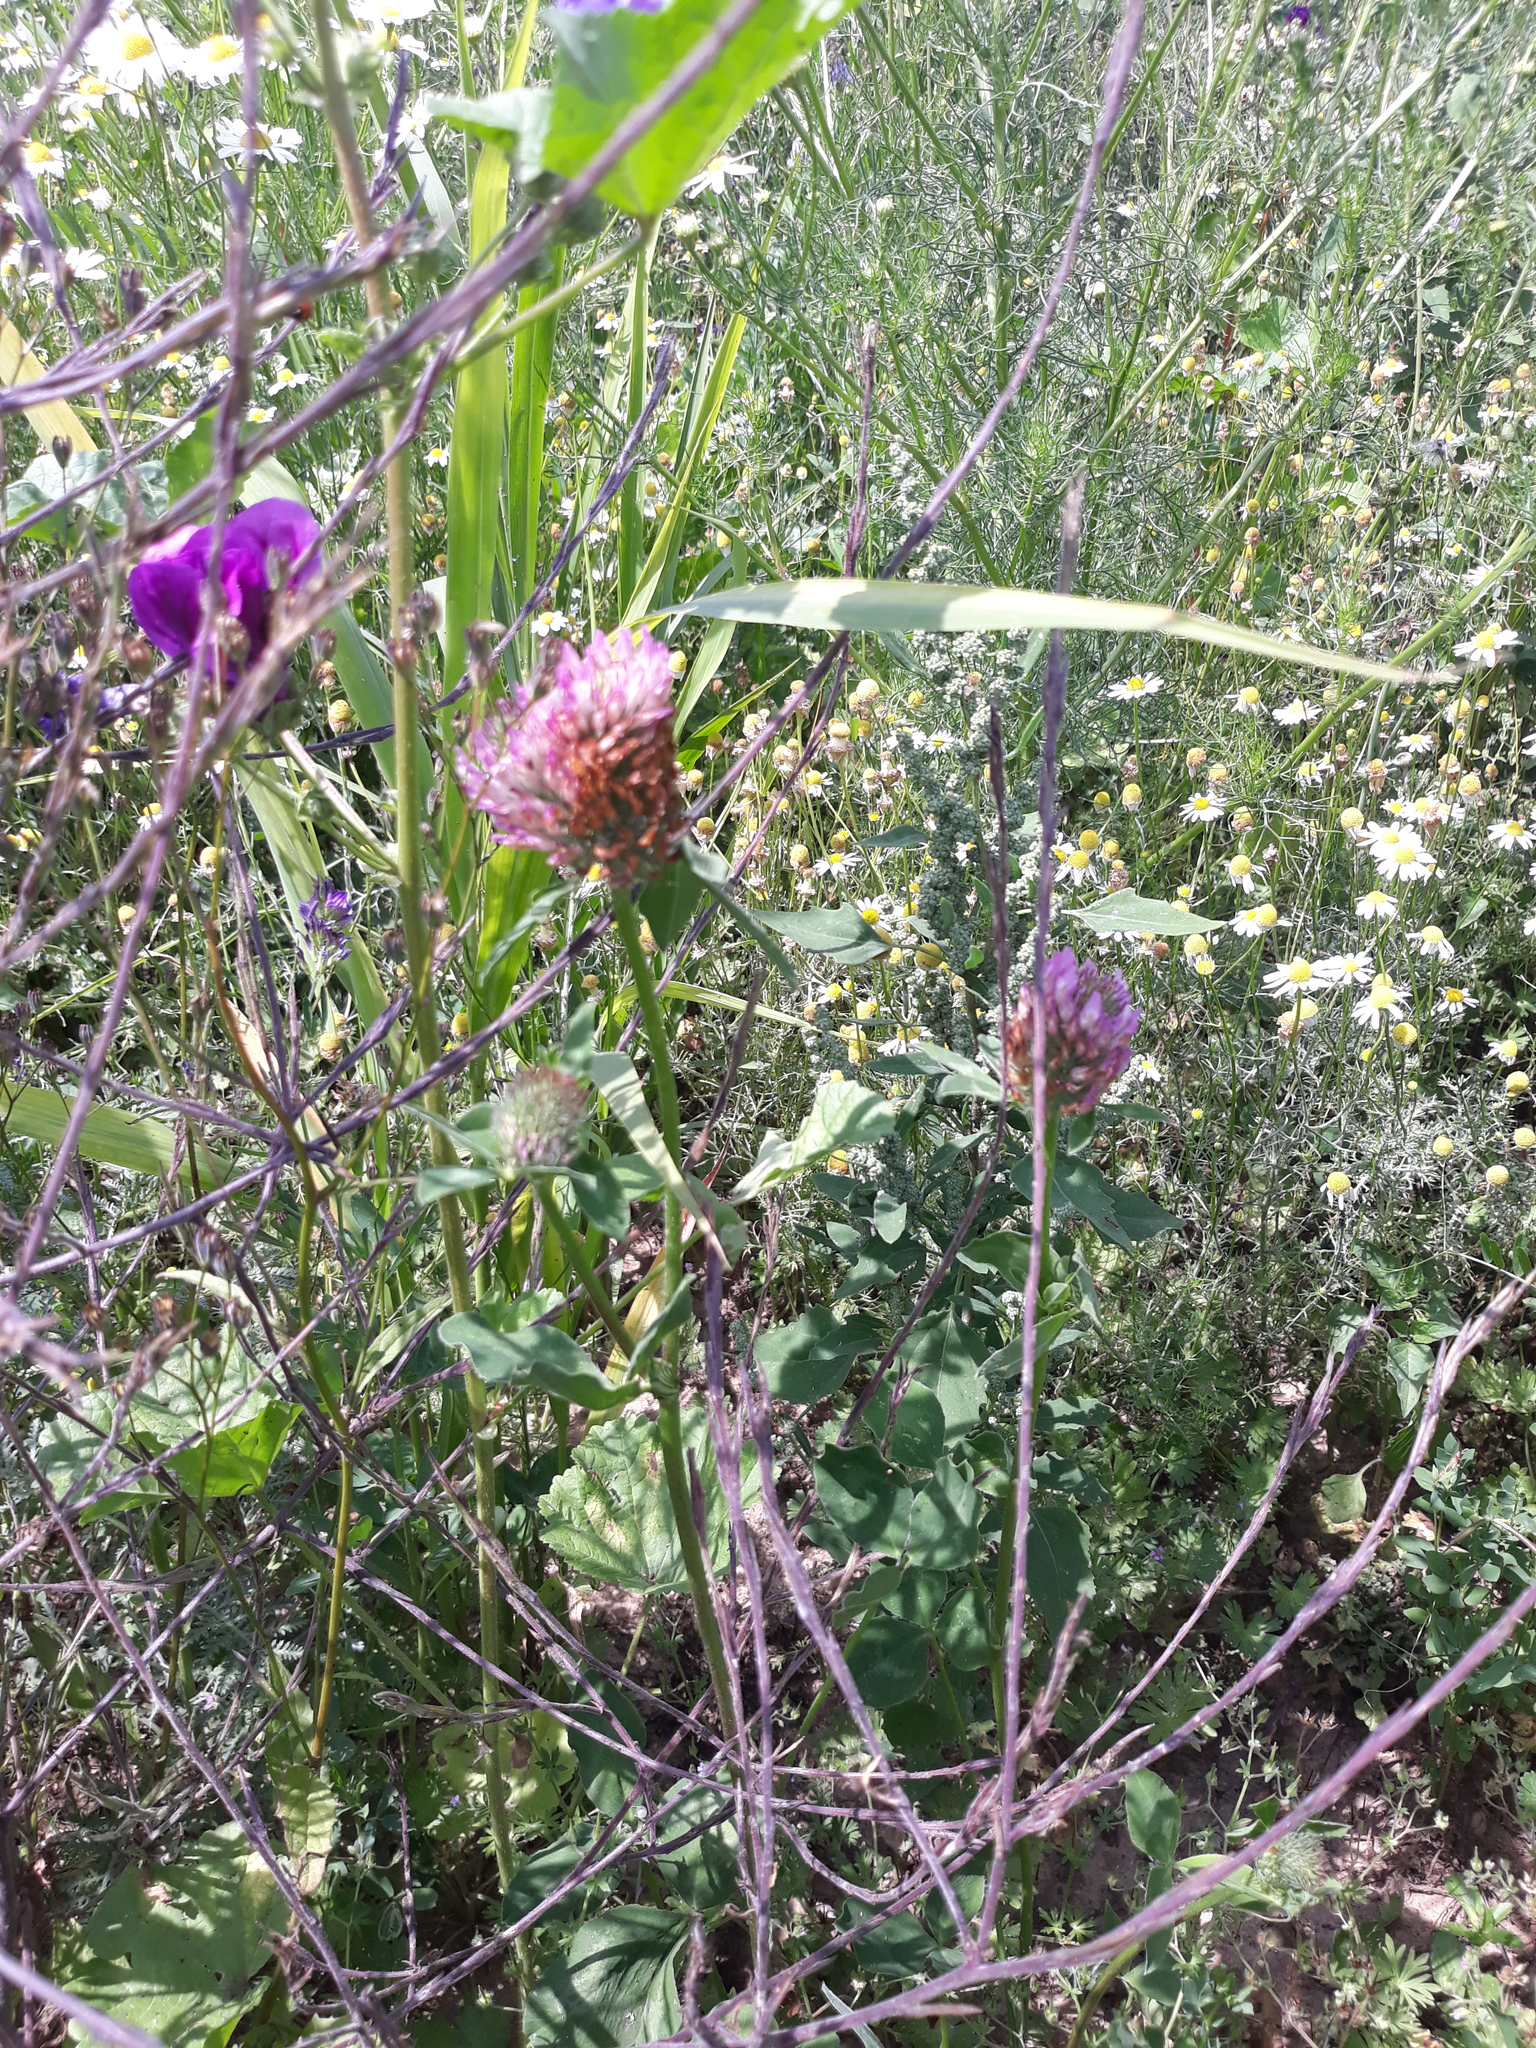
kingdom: Plantae
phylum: Tracheophyta
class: Magnoliopsida
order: Fabales
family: Fabaceae
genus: Trifolium
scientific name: Trifolium pratense
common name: Red clover
